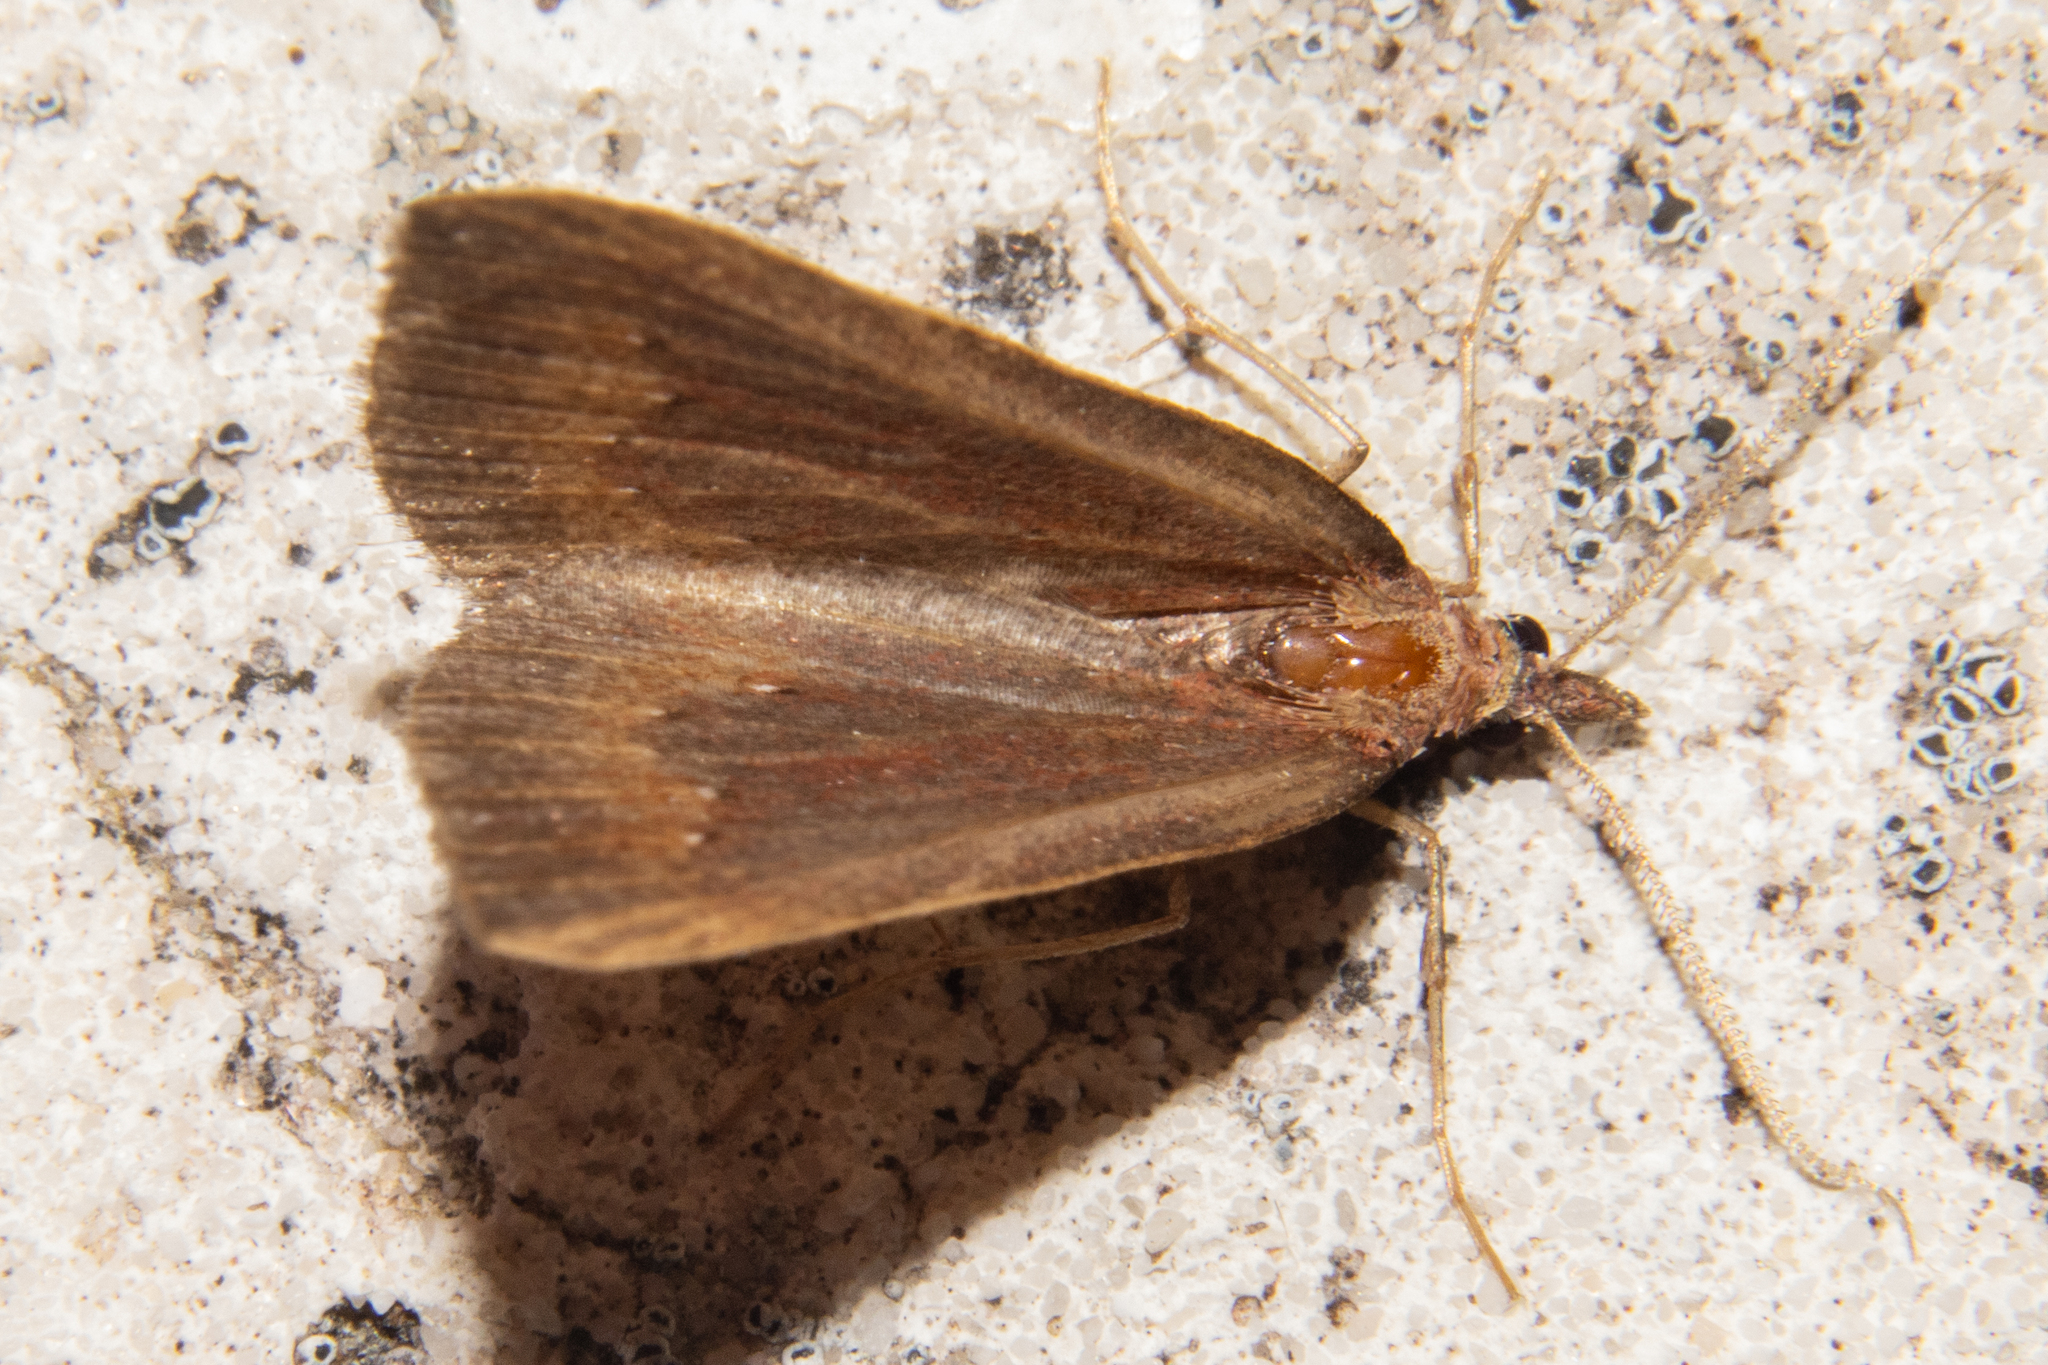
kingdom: Animalia
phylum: Arthropoda
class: Insecta
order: Lepidoptera
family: Geometridae
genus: Xanthorhoe
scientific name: Xanthorhoe occulta
